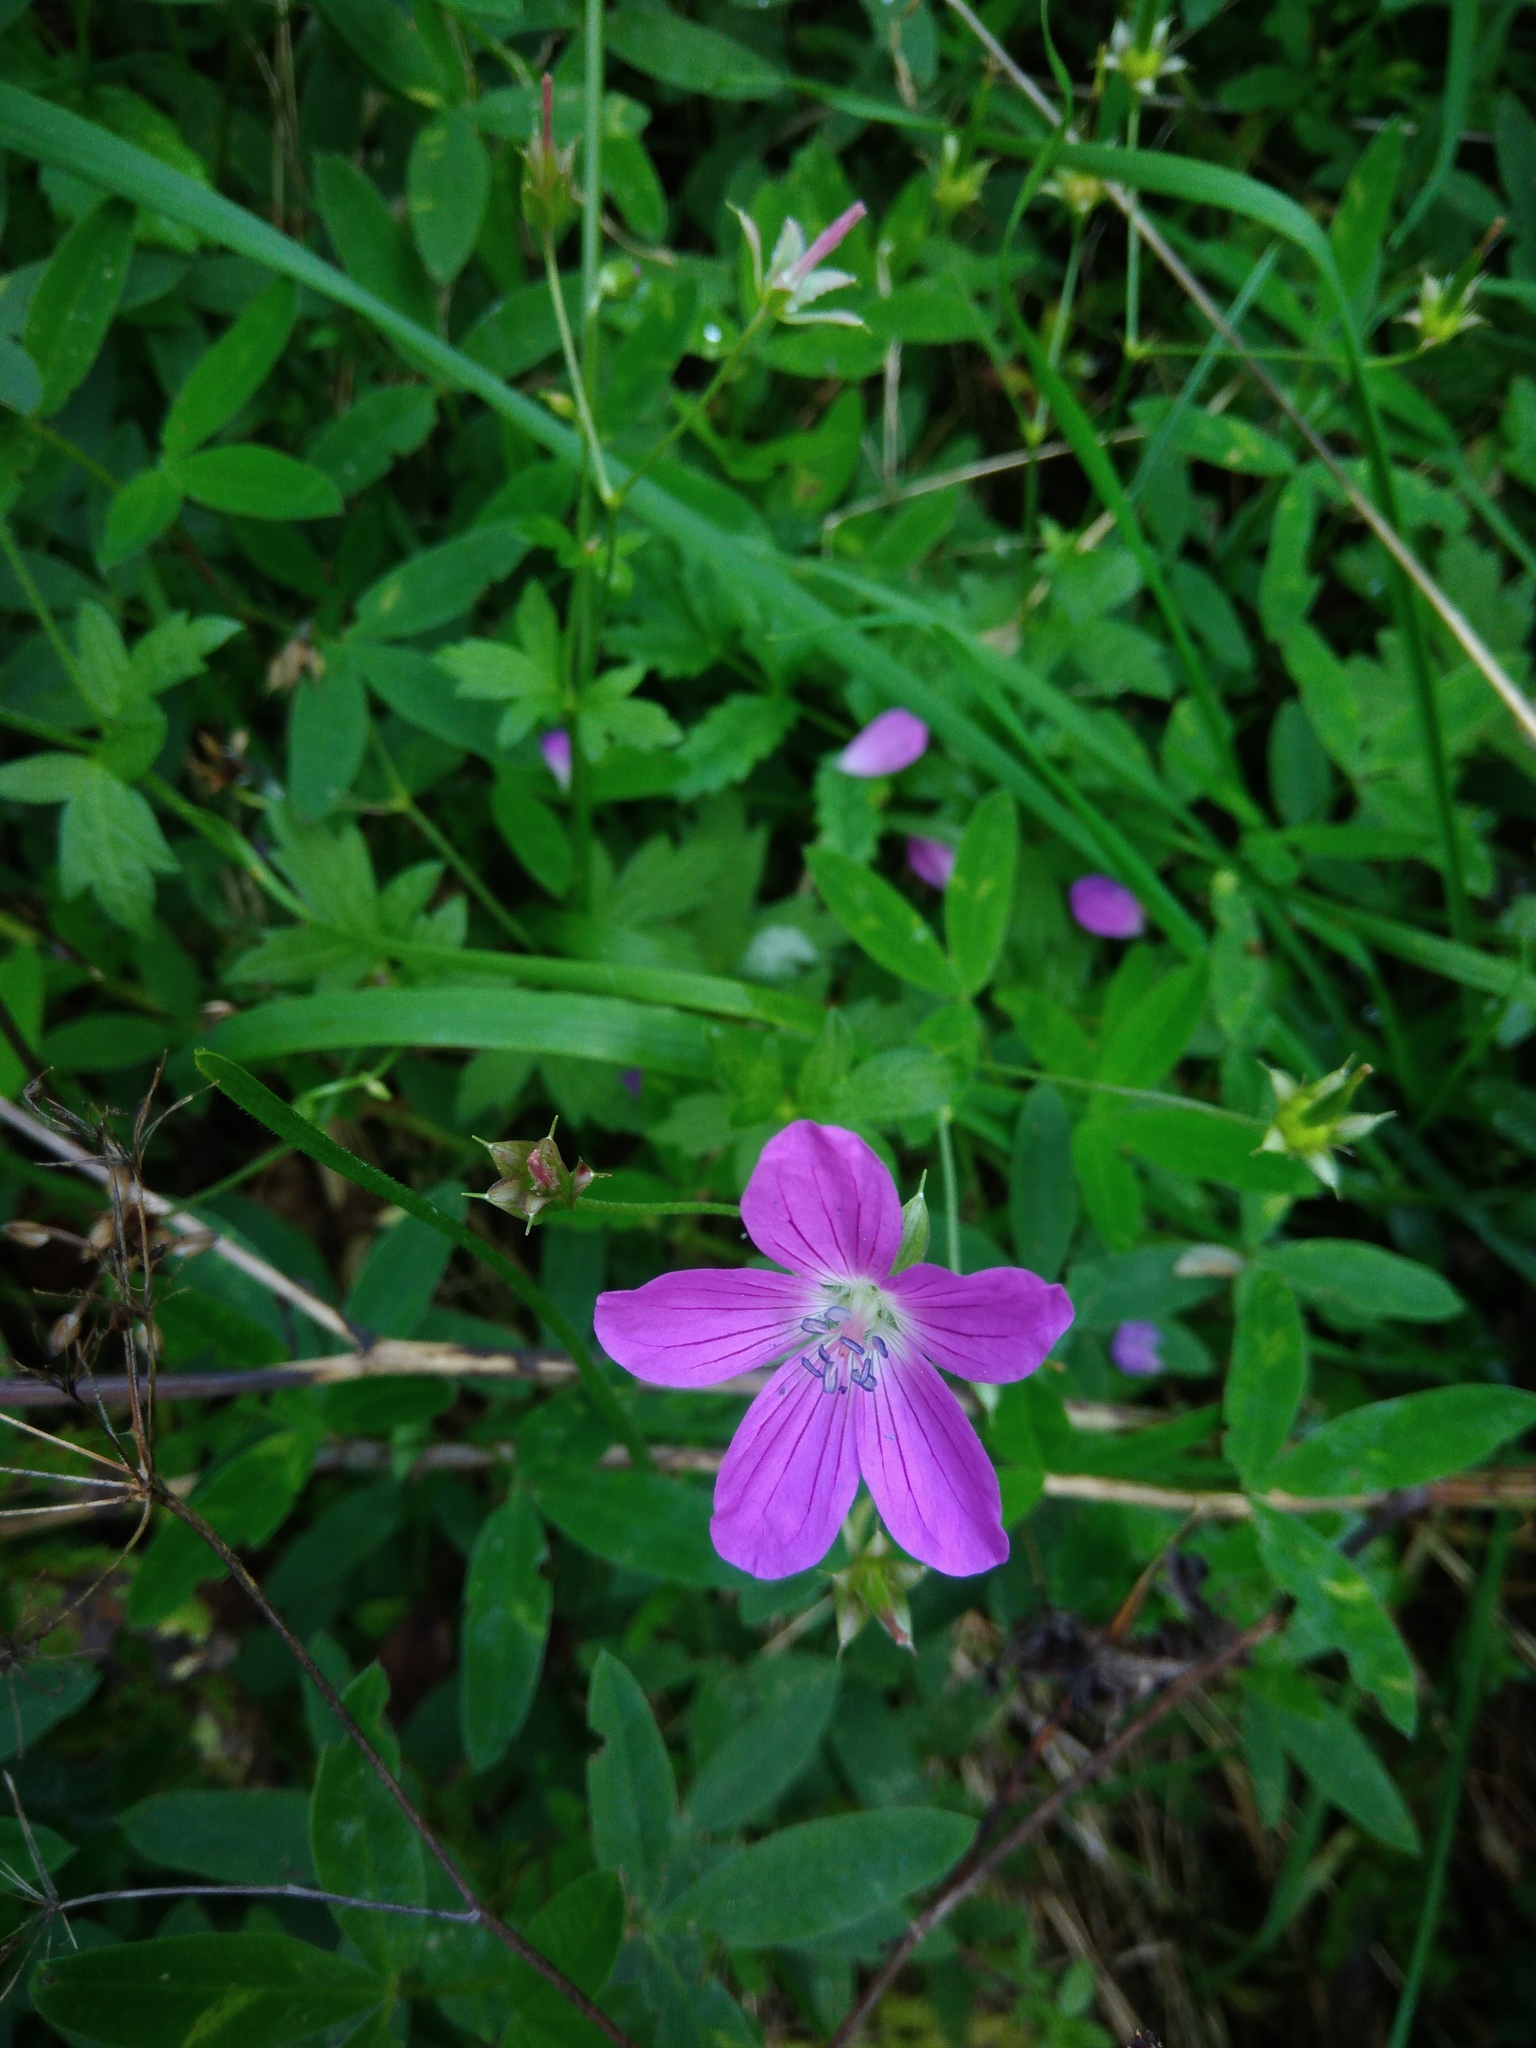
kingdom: Plantae
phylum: Tracheophyta
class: Magnoliopsida
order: Geraniales
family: Geraniaceae
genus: Geranium
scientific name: Geranium palustre
